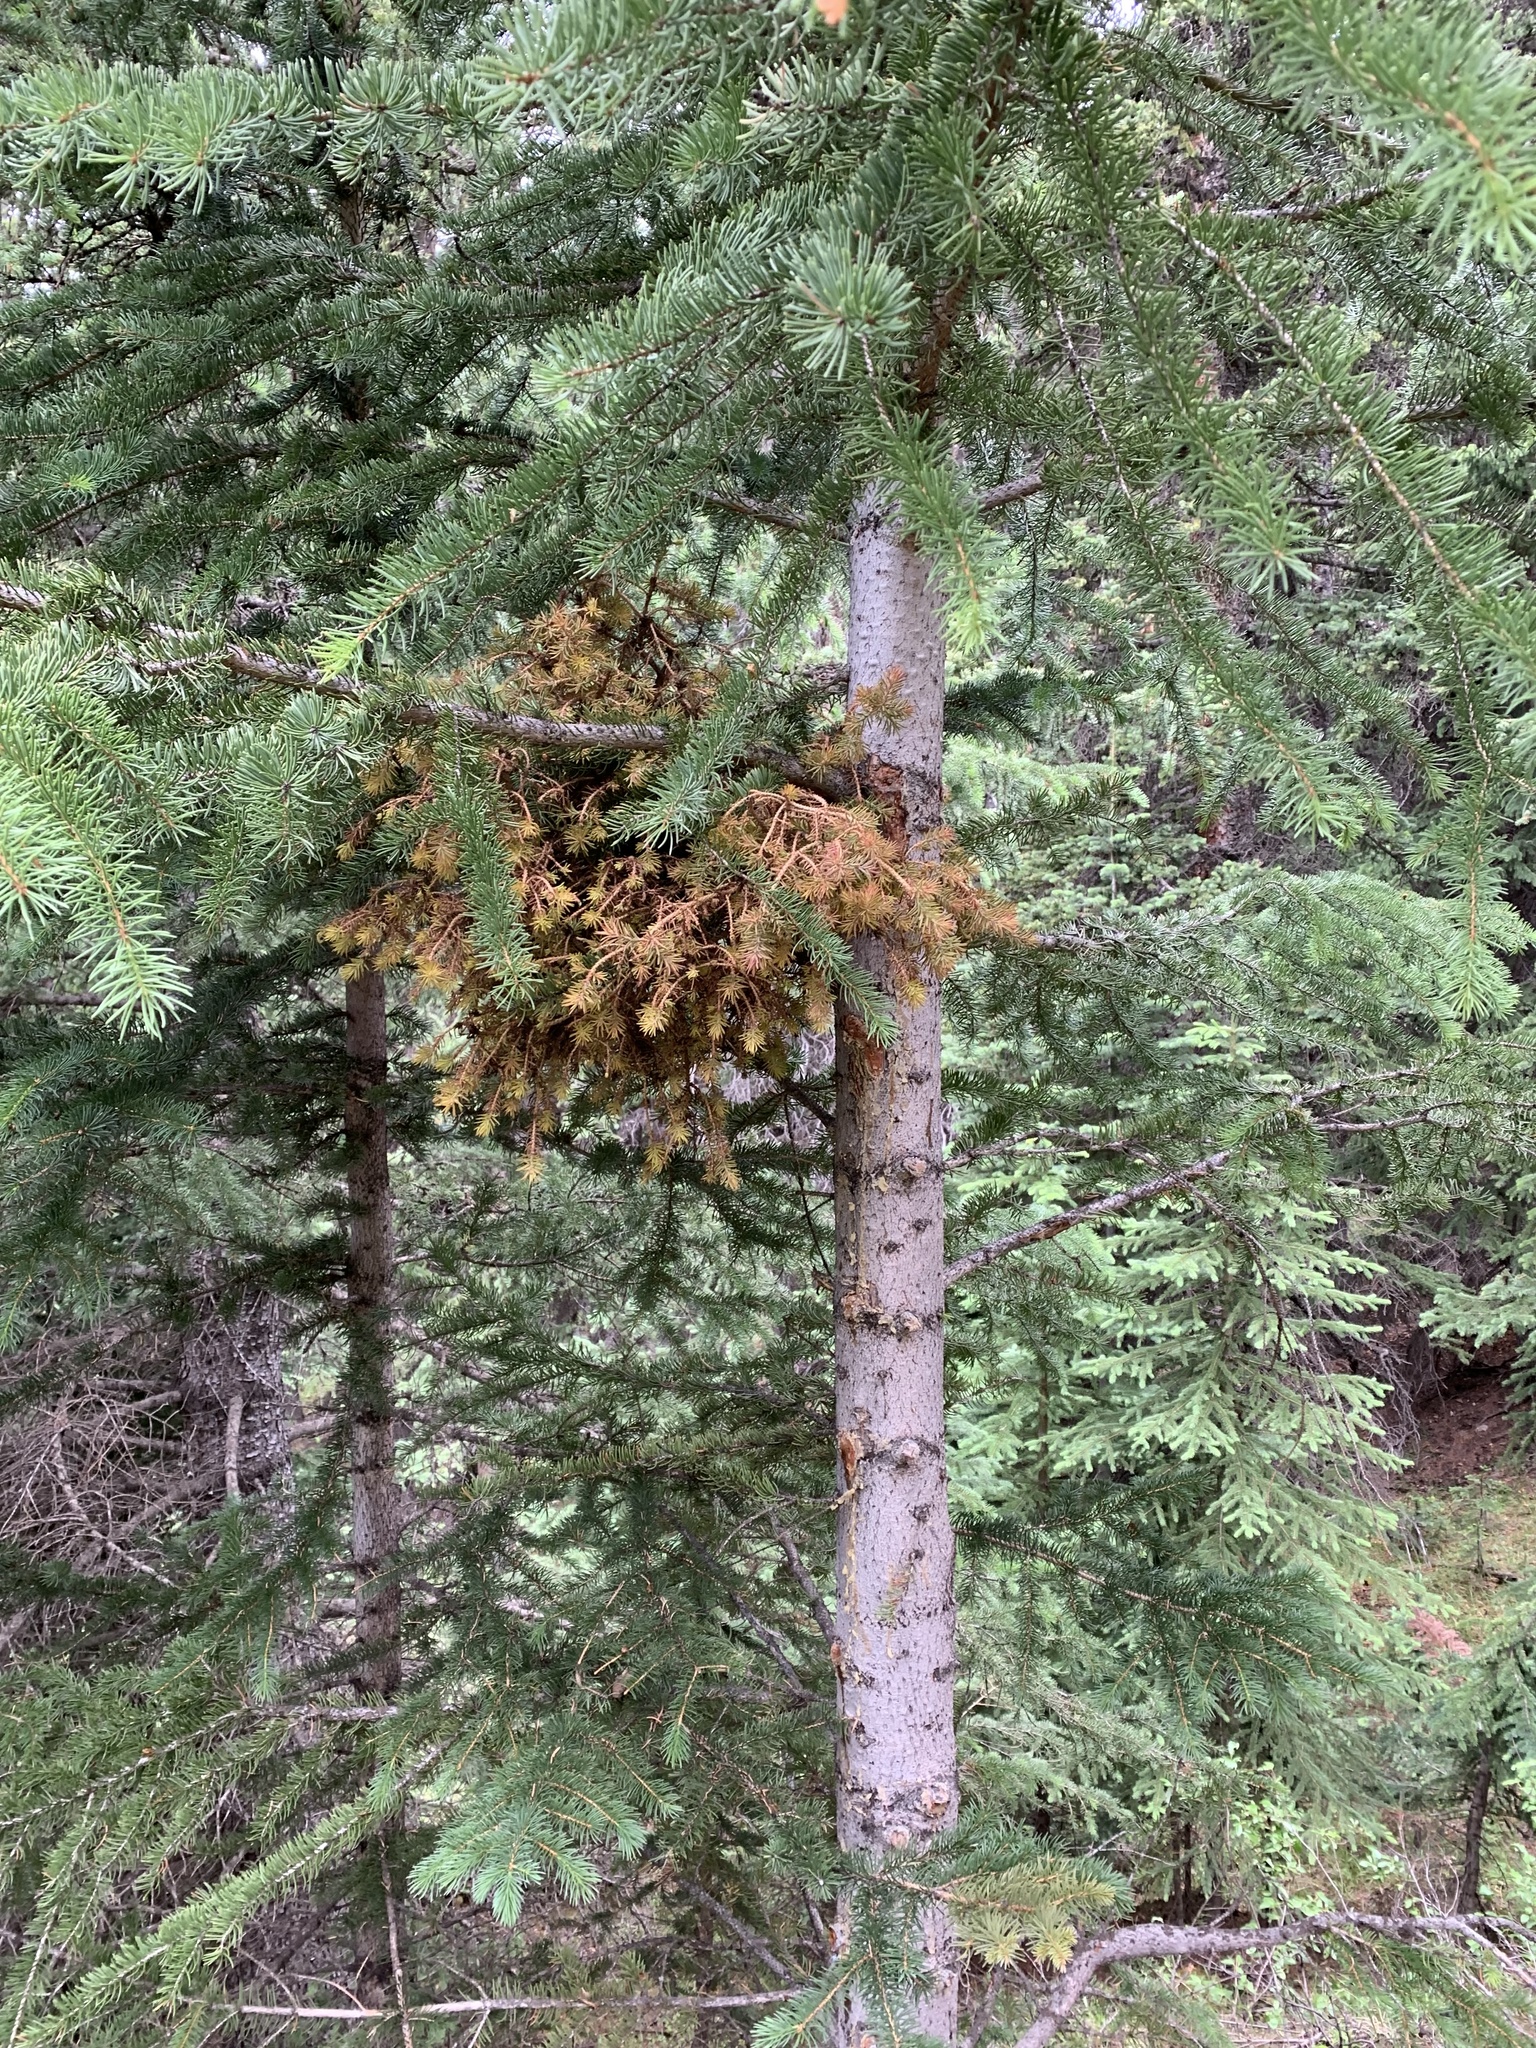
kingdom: Fungi
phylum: Basidiomycota
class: Pucciniomycetes
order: Pucciniales
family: Coleosporiaceae
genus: Chrysomyxa
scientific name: Chrysomyxa arctostaphyli
